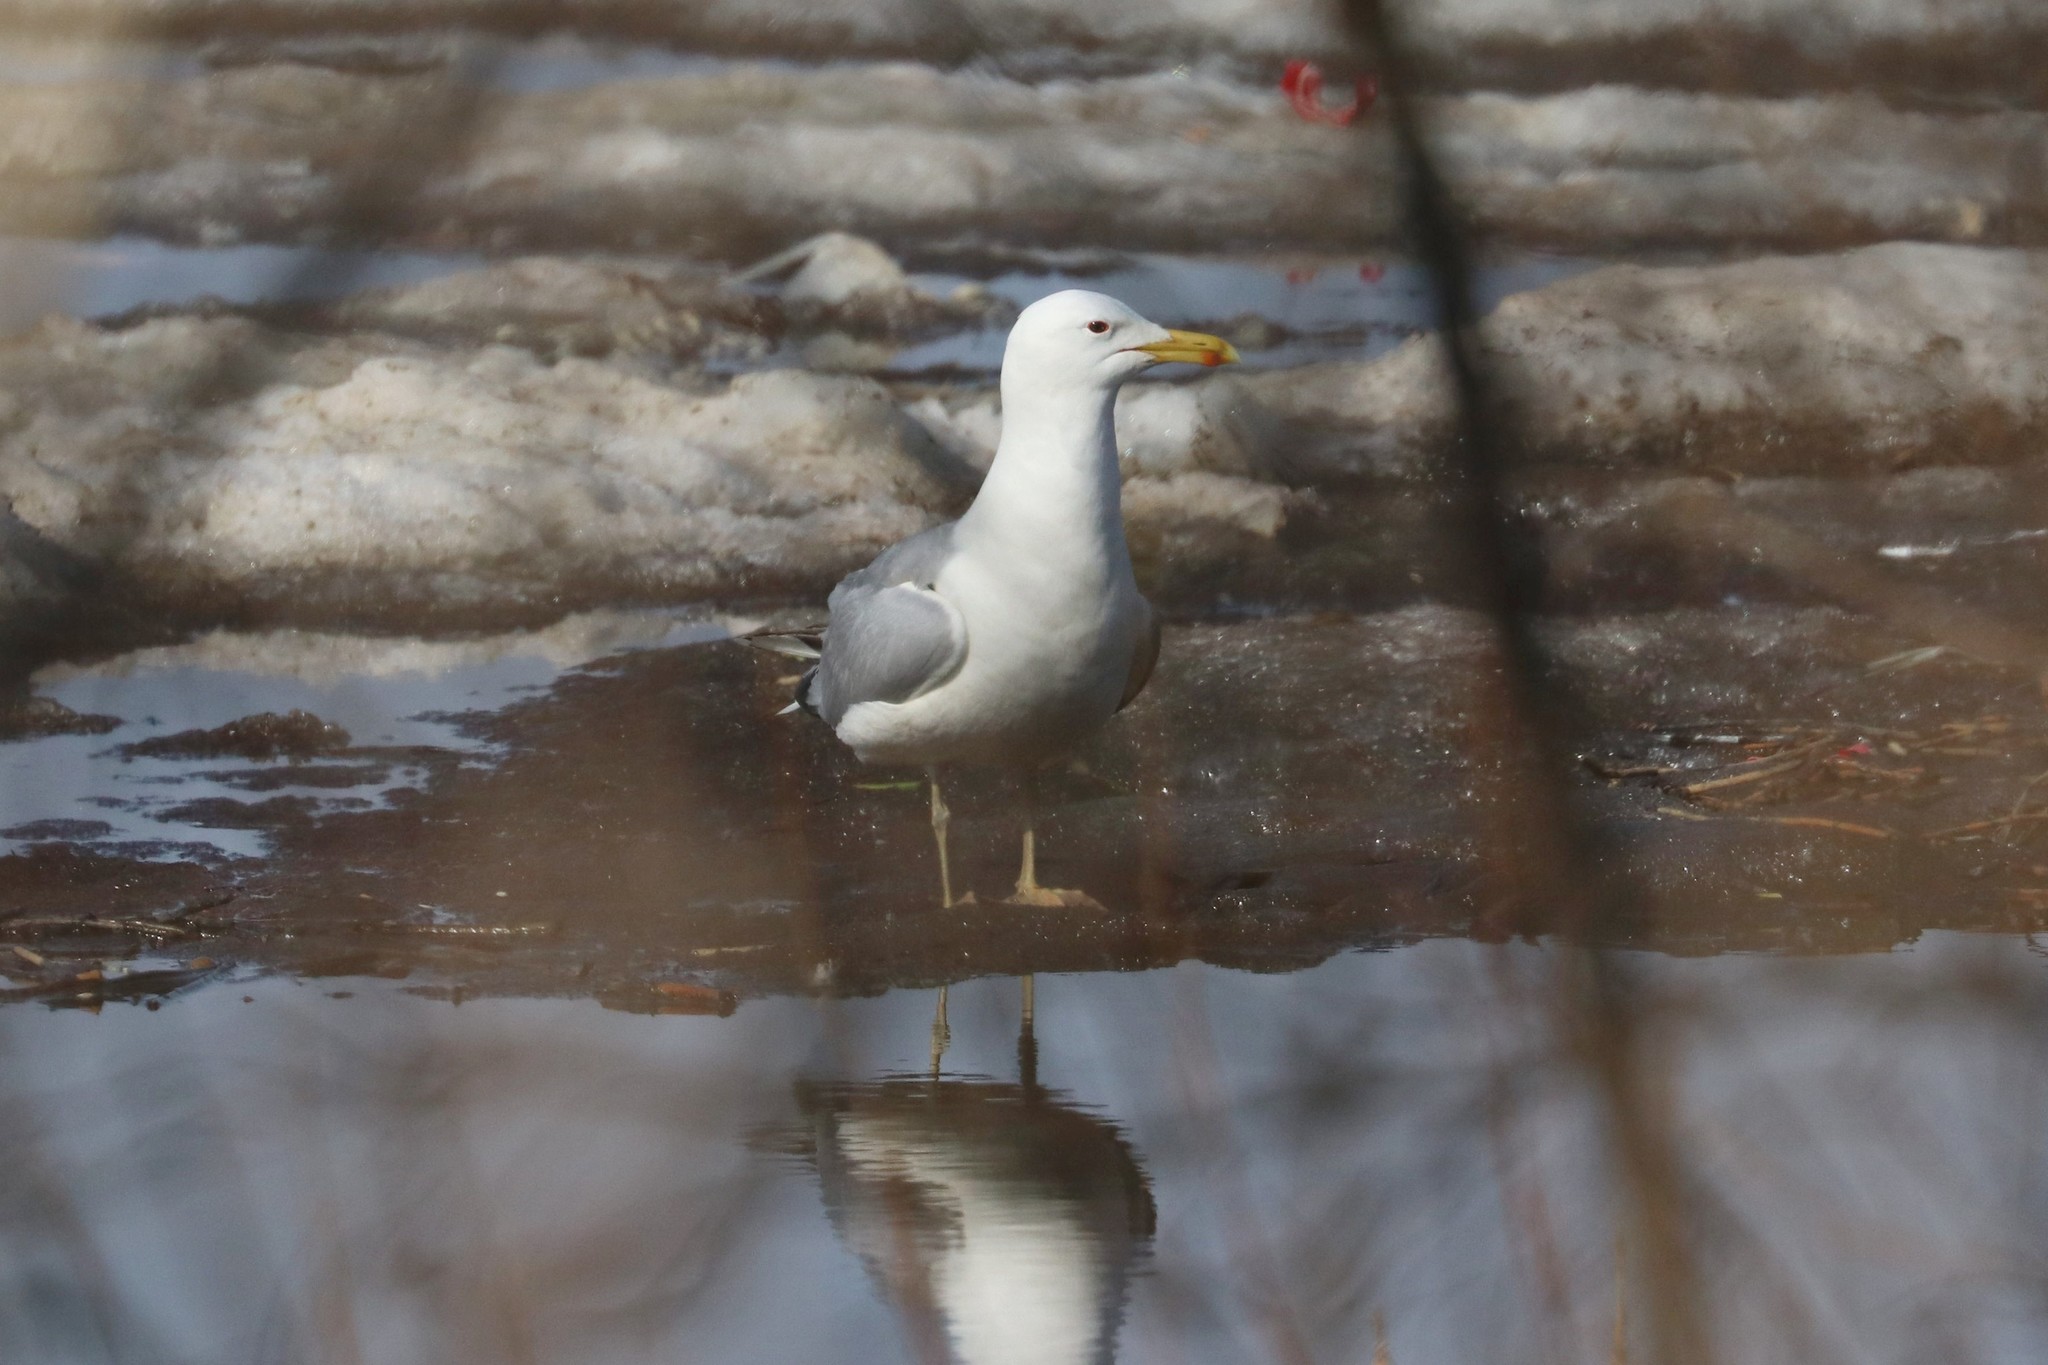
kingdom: Animalia
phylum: Chordata
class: Aves
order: Charadriiformes
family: Laridae
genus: Larus
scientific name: Larus cachinnans
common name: Caspian gull
